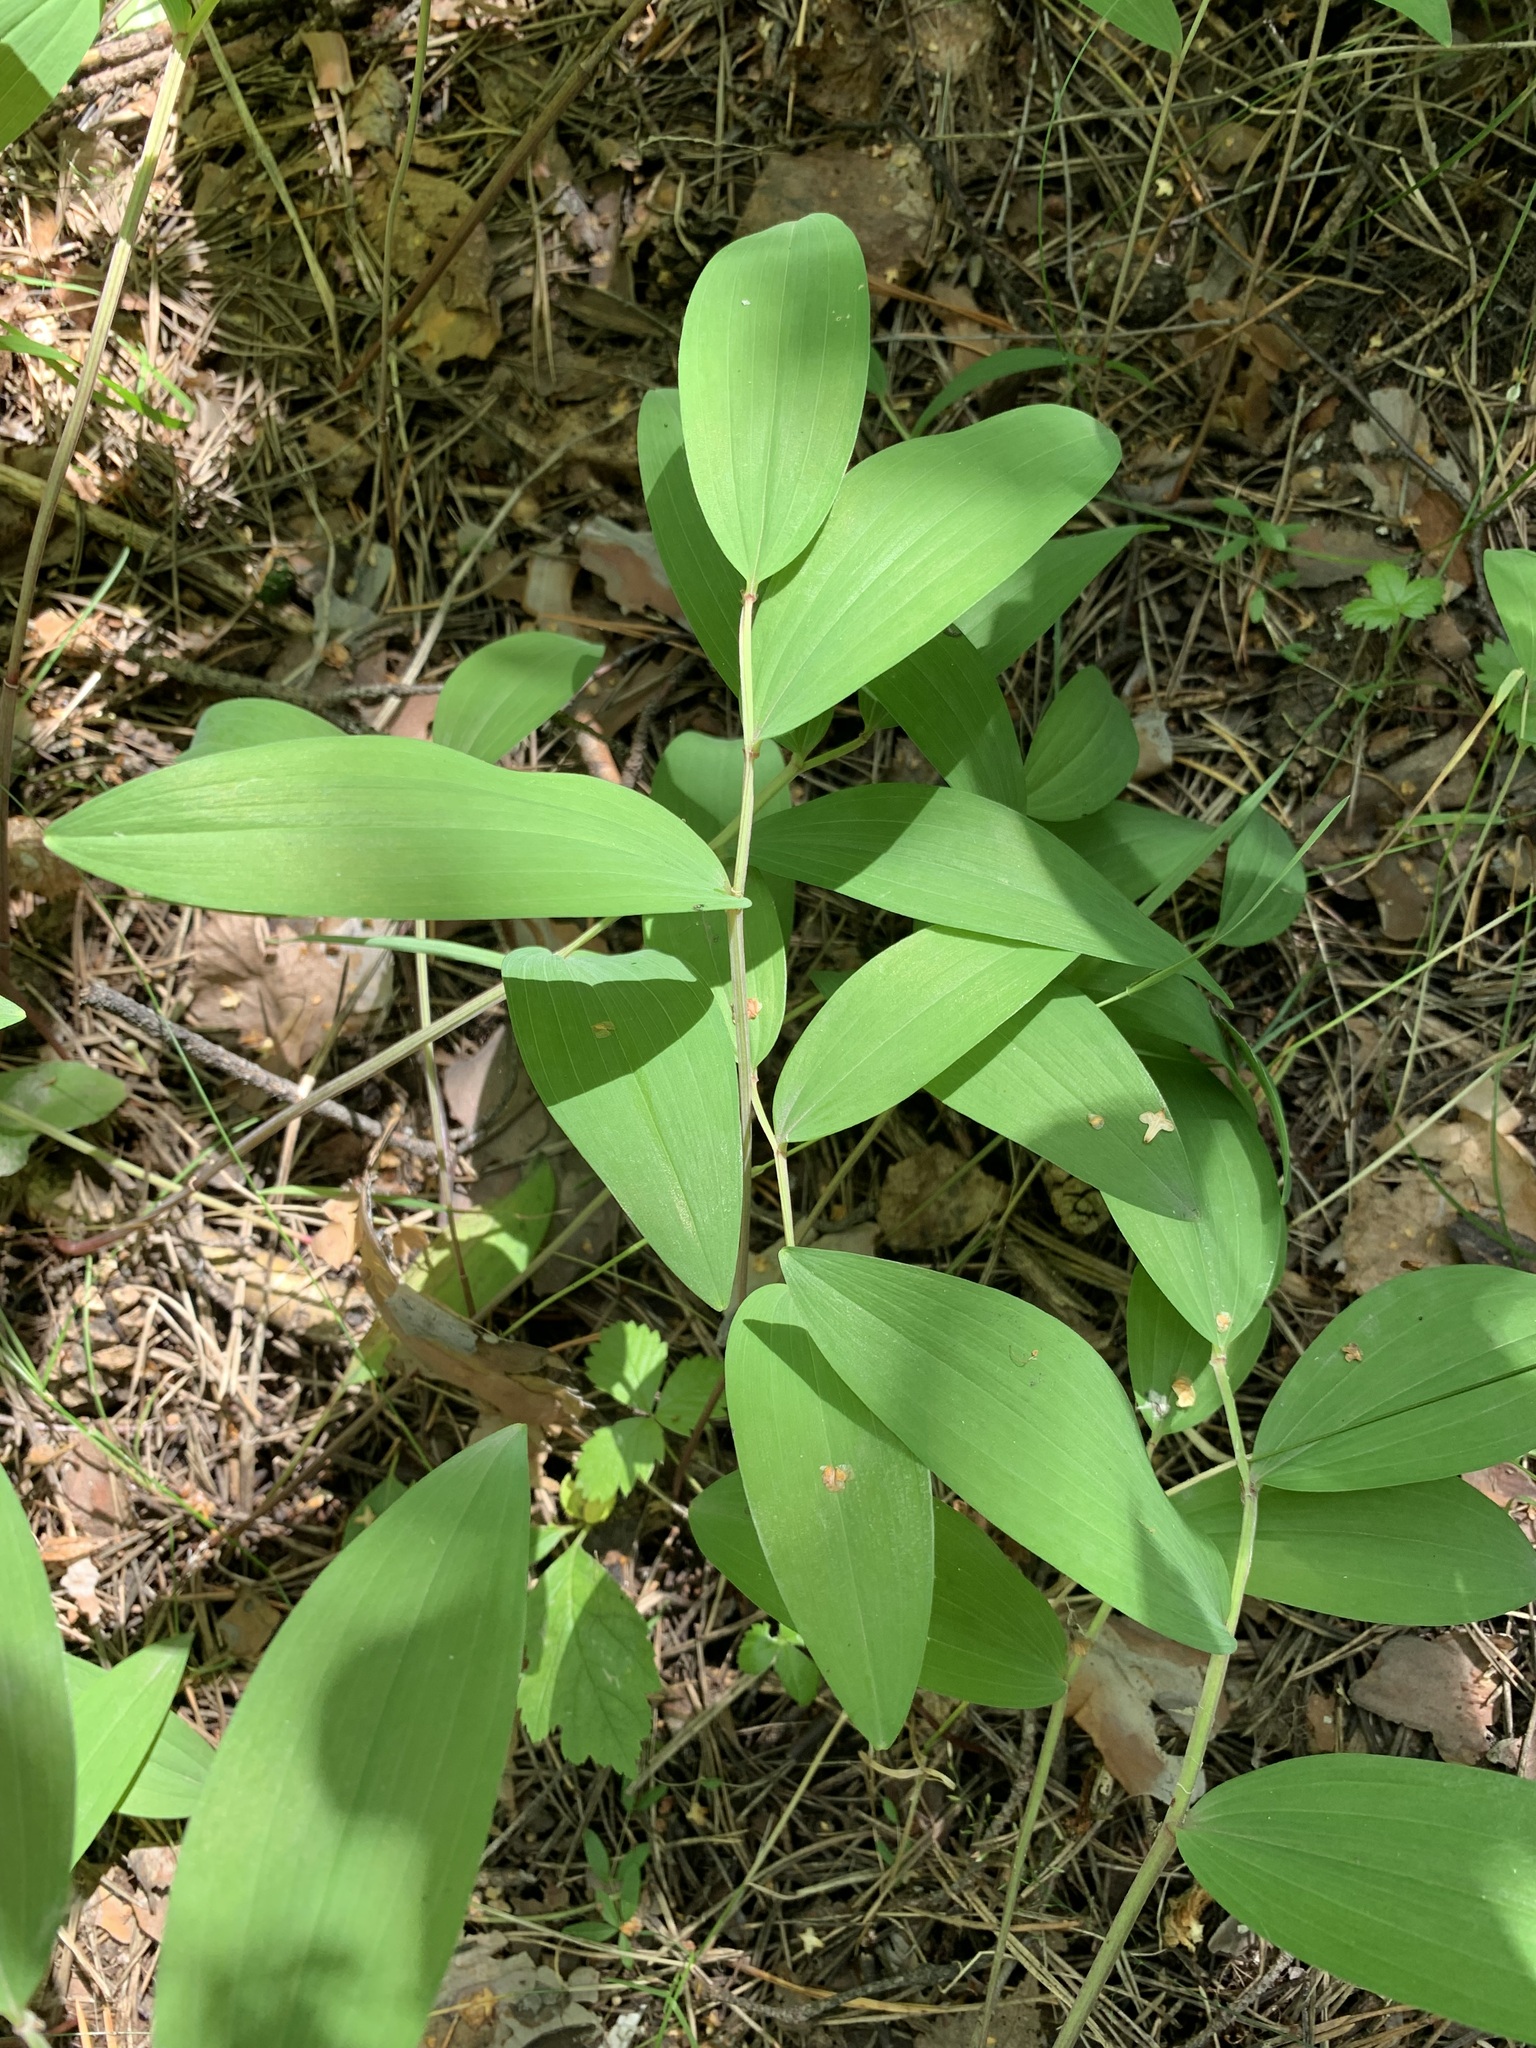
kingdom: Plantae
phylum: Tracheophyta
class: Liliopsida
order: Asparagales
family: Asparagaceae
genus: Polygonatum
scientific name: Polygonatum odoratum
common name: Angular solomon's-seal
